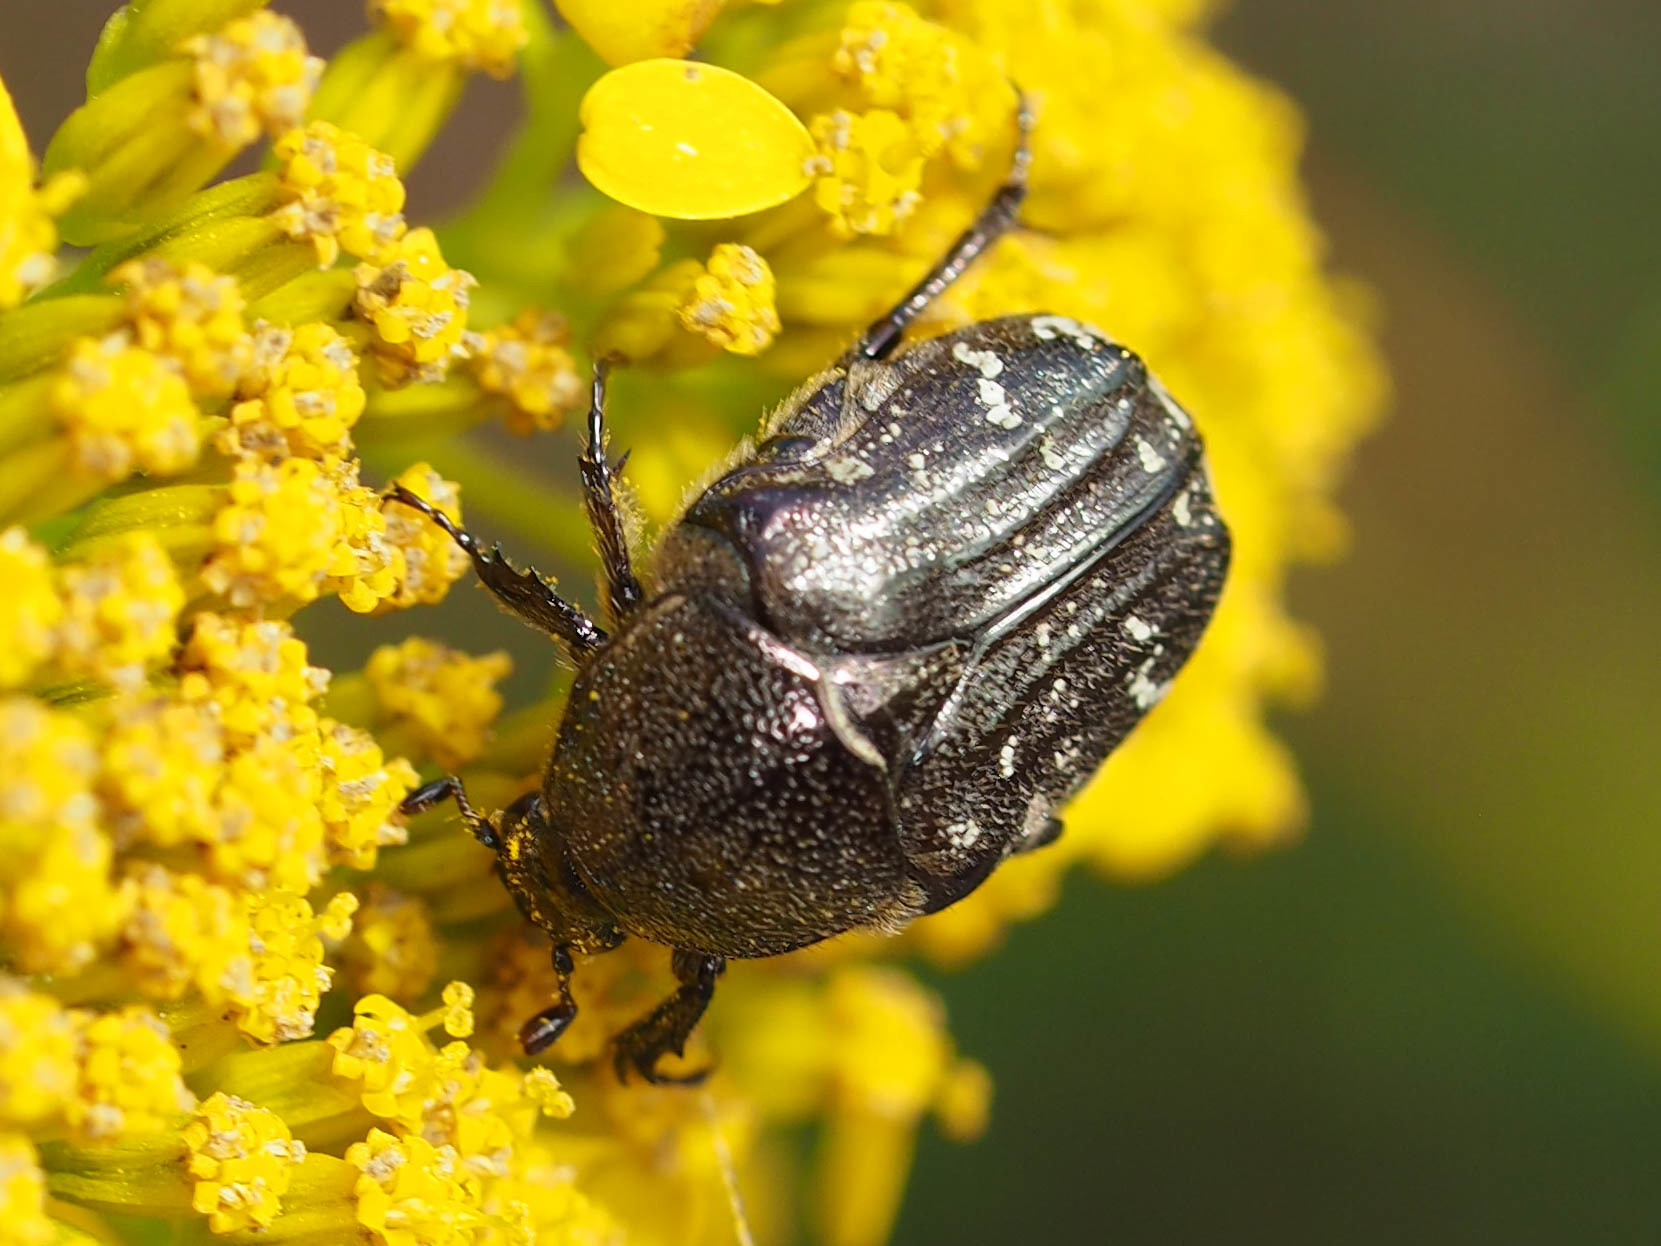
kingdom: Animalia
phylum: Arthropoda
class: Insecta
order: Coleoptera
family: Scarabaeidae
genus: Euphoria
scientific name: Euphoria sepulcralis
